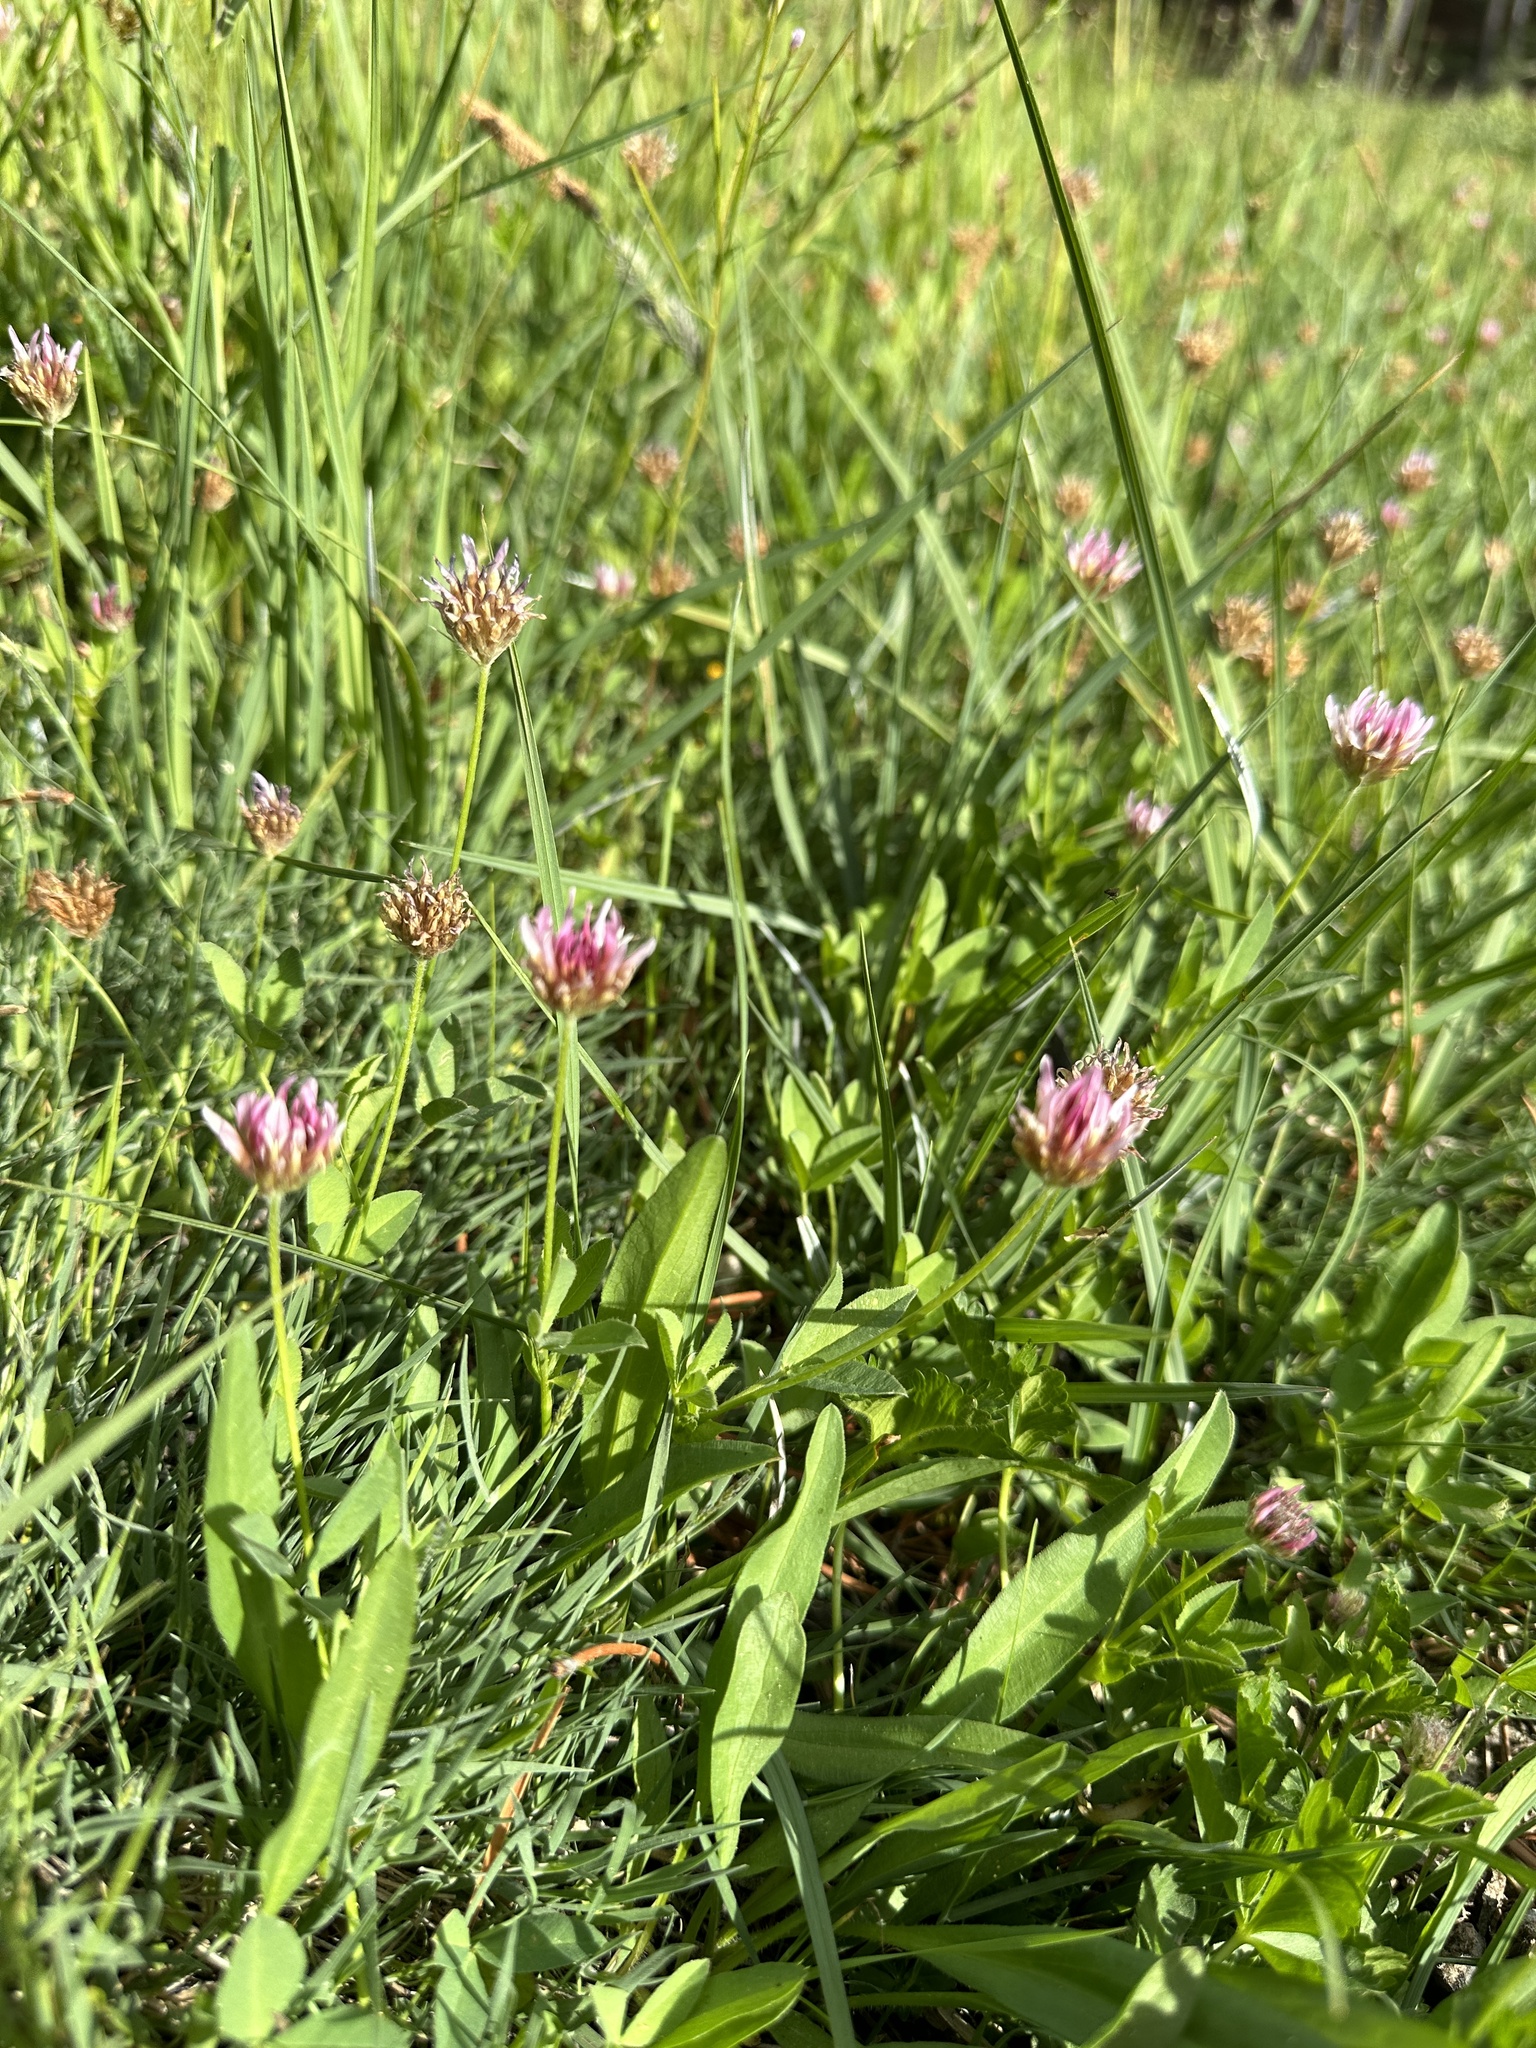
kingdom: Plantae
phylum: Tracheophyta
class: Magnoliopsida
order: Fabales
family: Fabaceae
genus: Trifolium
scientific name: Trifolium longipes
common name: Long-stalk clover
